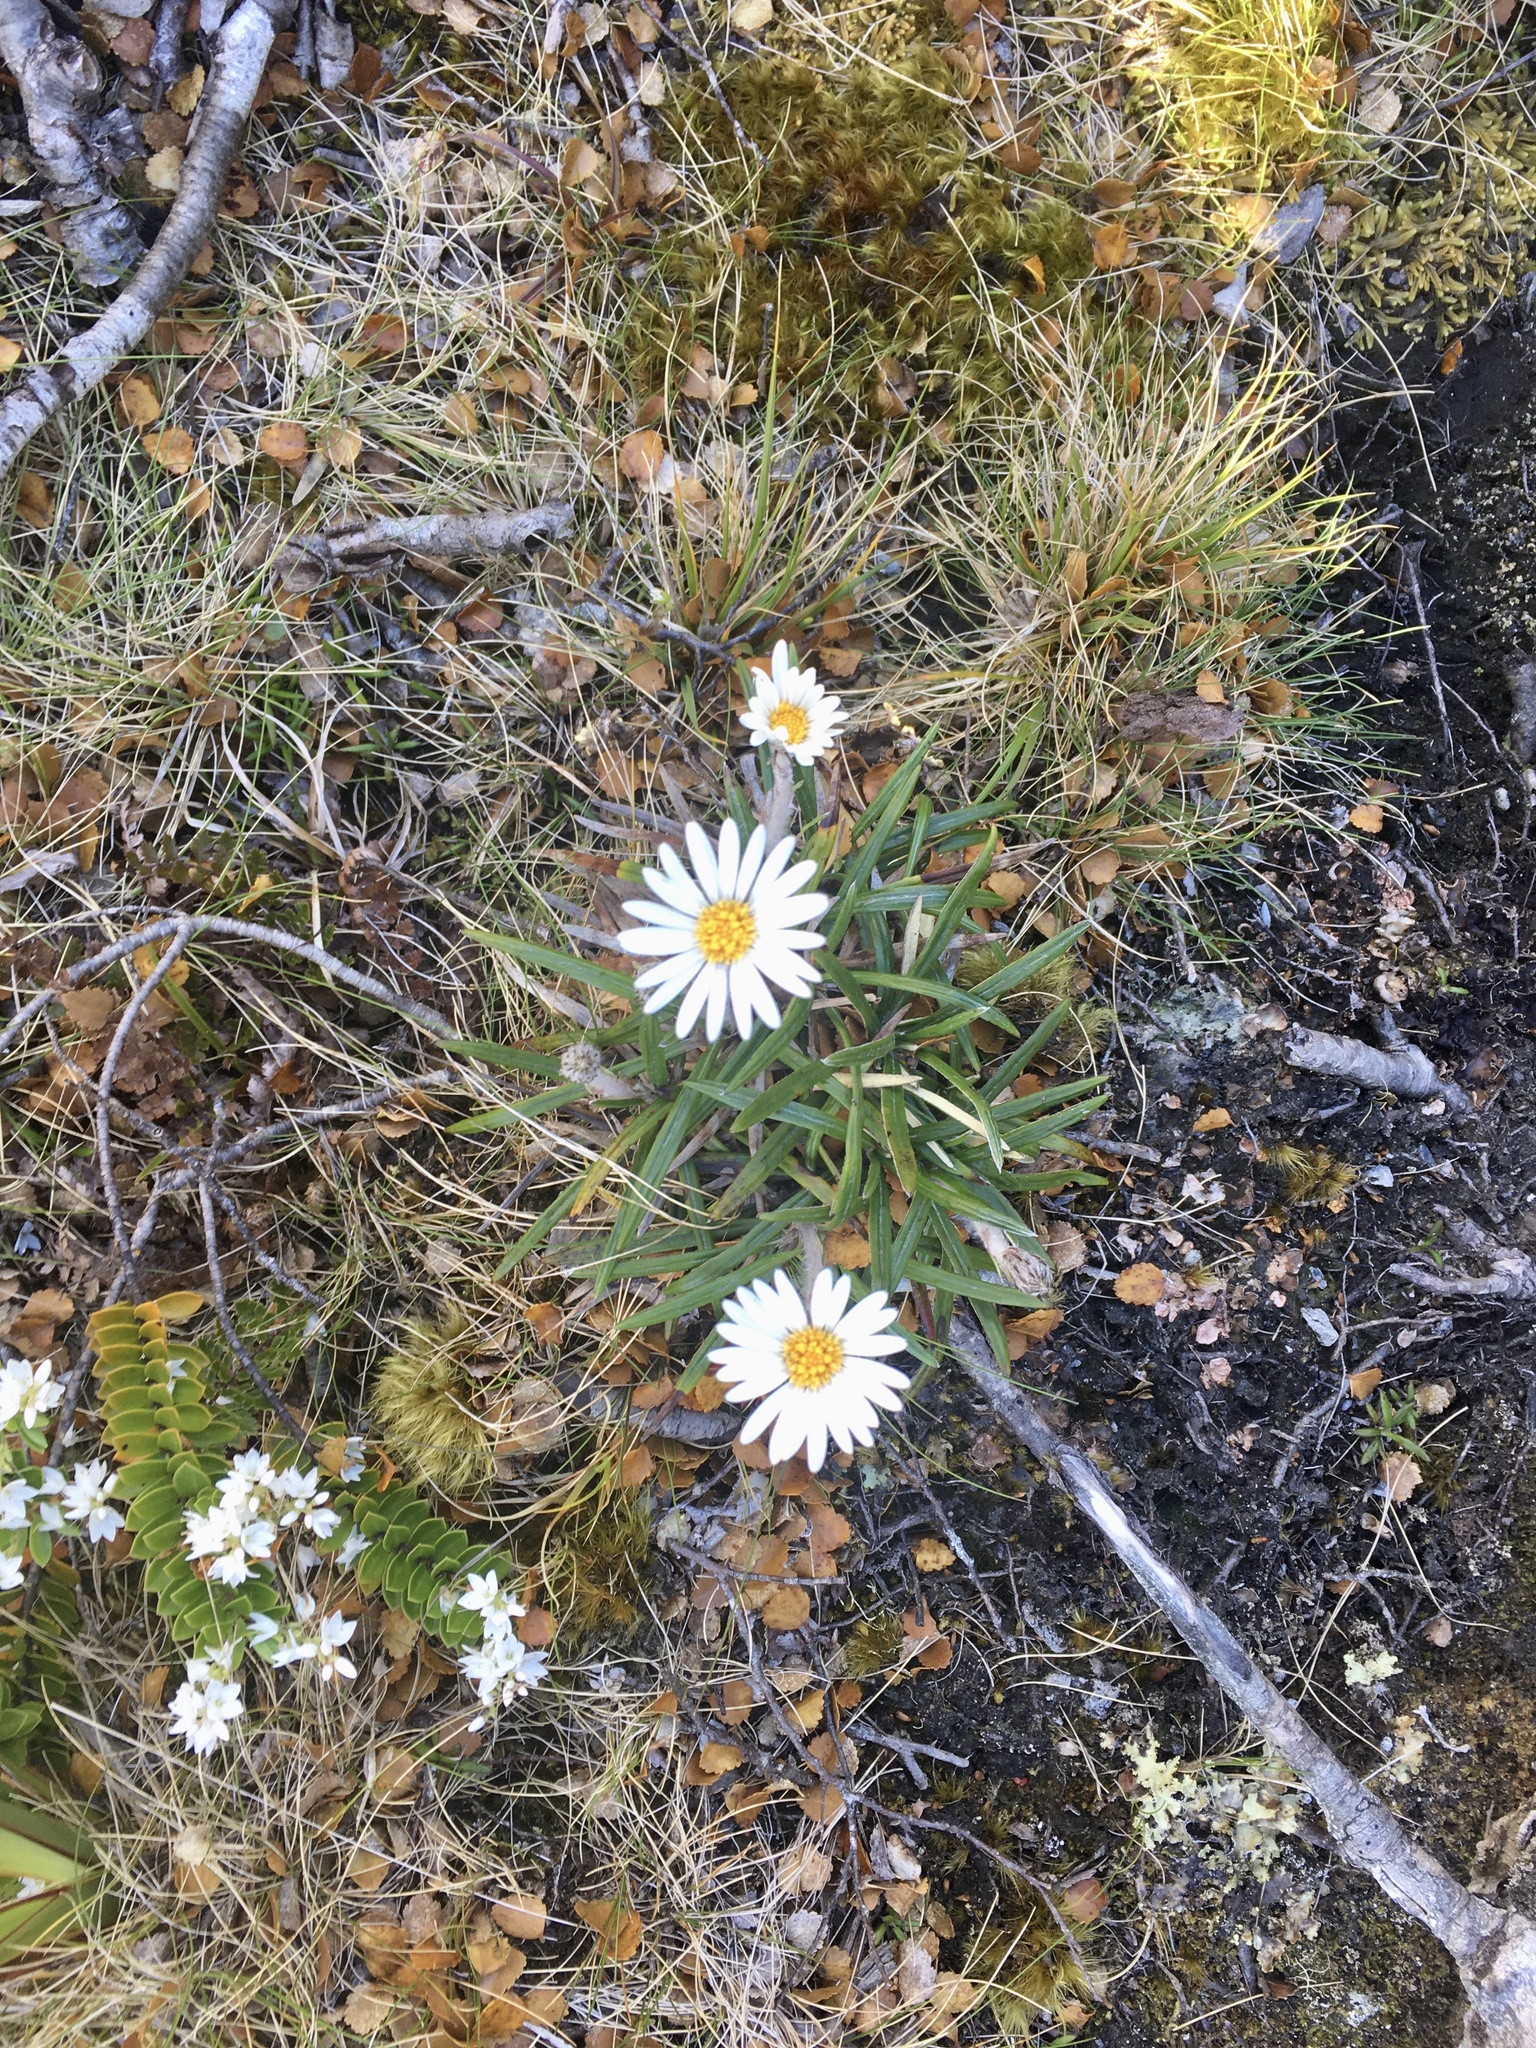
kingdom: Plantae
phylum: Tracheophyta
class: Magnoliopsida
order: Asterales
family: Asteraceae
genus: Celmisia
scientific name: Celmisia spectabilis
